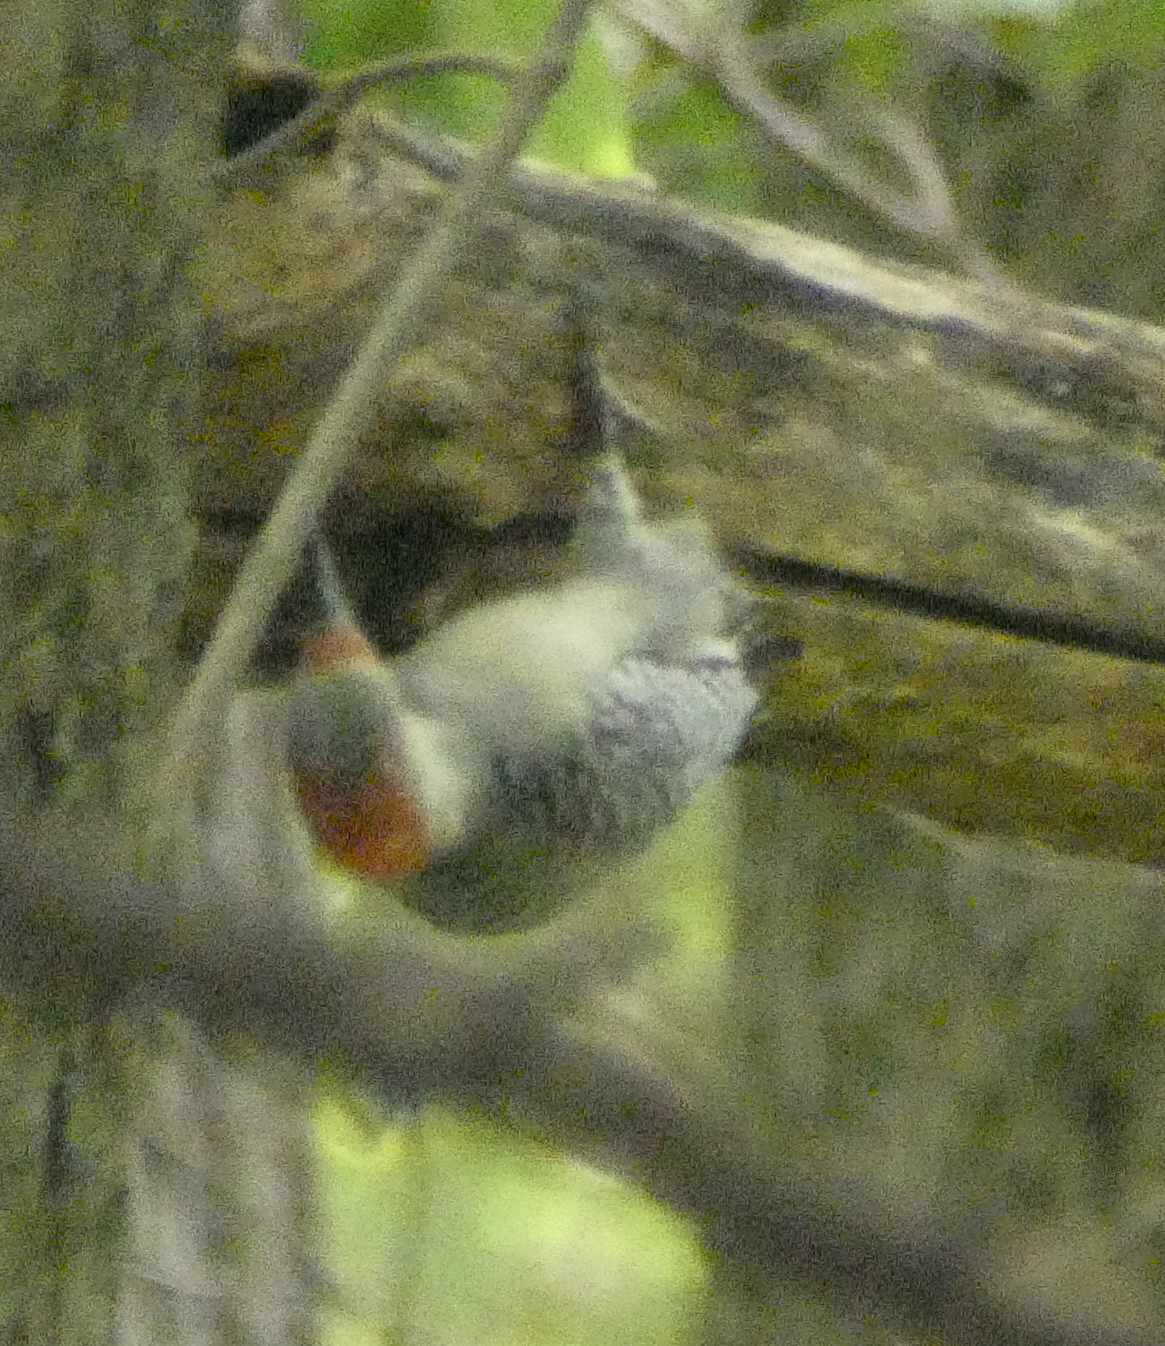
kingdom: Animalia
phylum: Chordata
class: Aves
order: Piciformes
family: Picidae
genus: Melanerpes
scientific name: Melanerpes carolinus
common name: Red-bellied woodpecker
